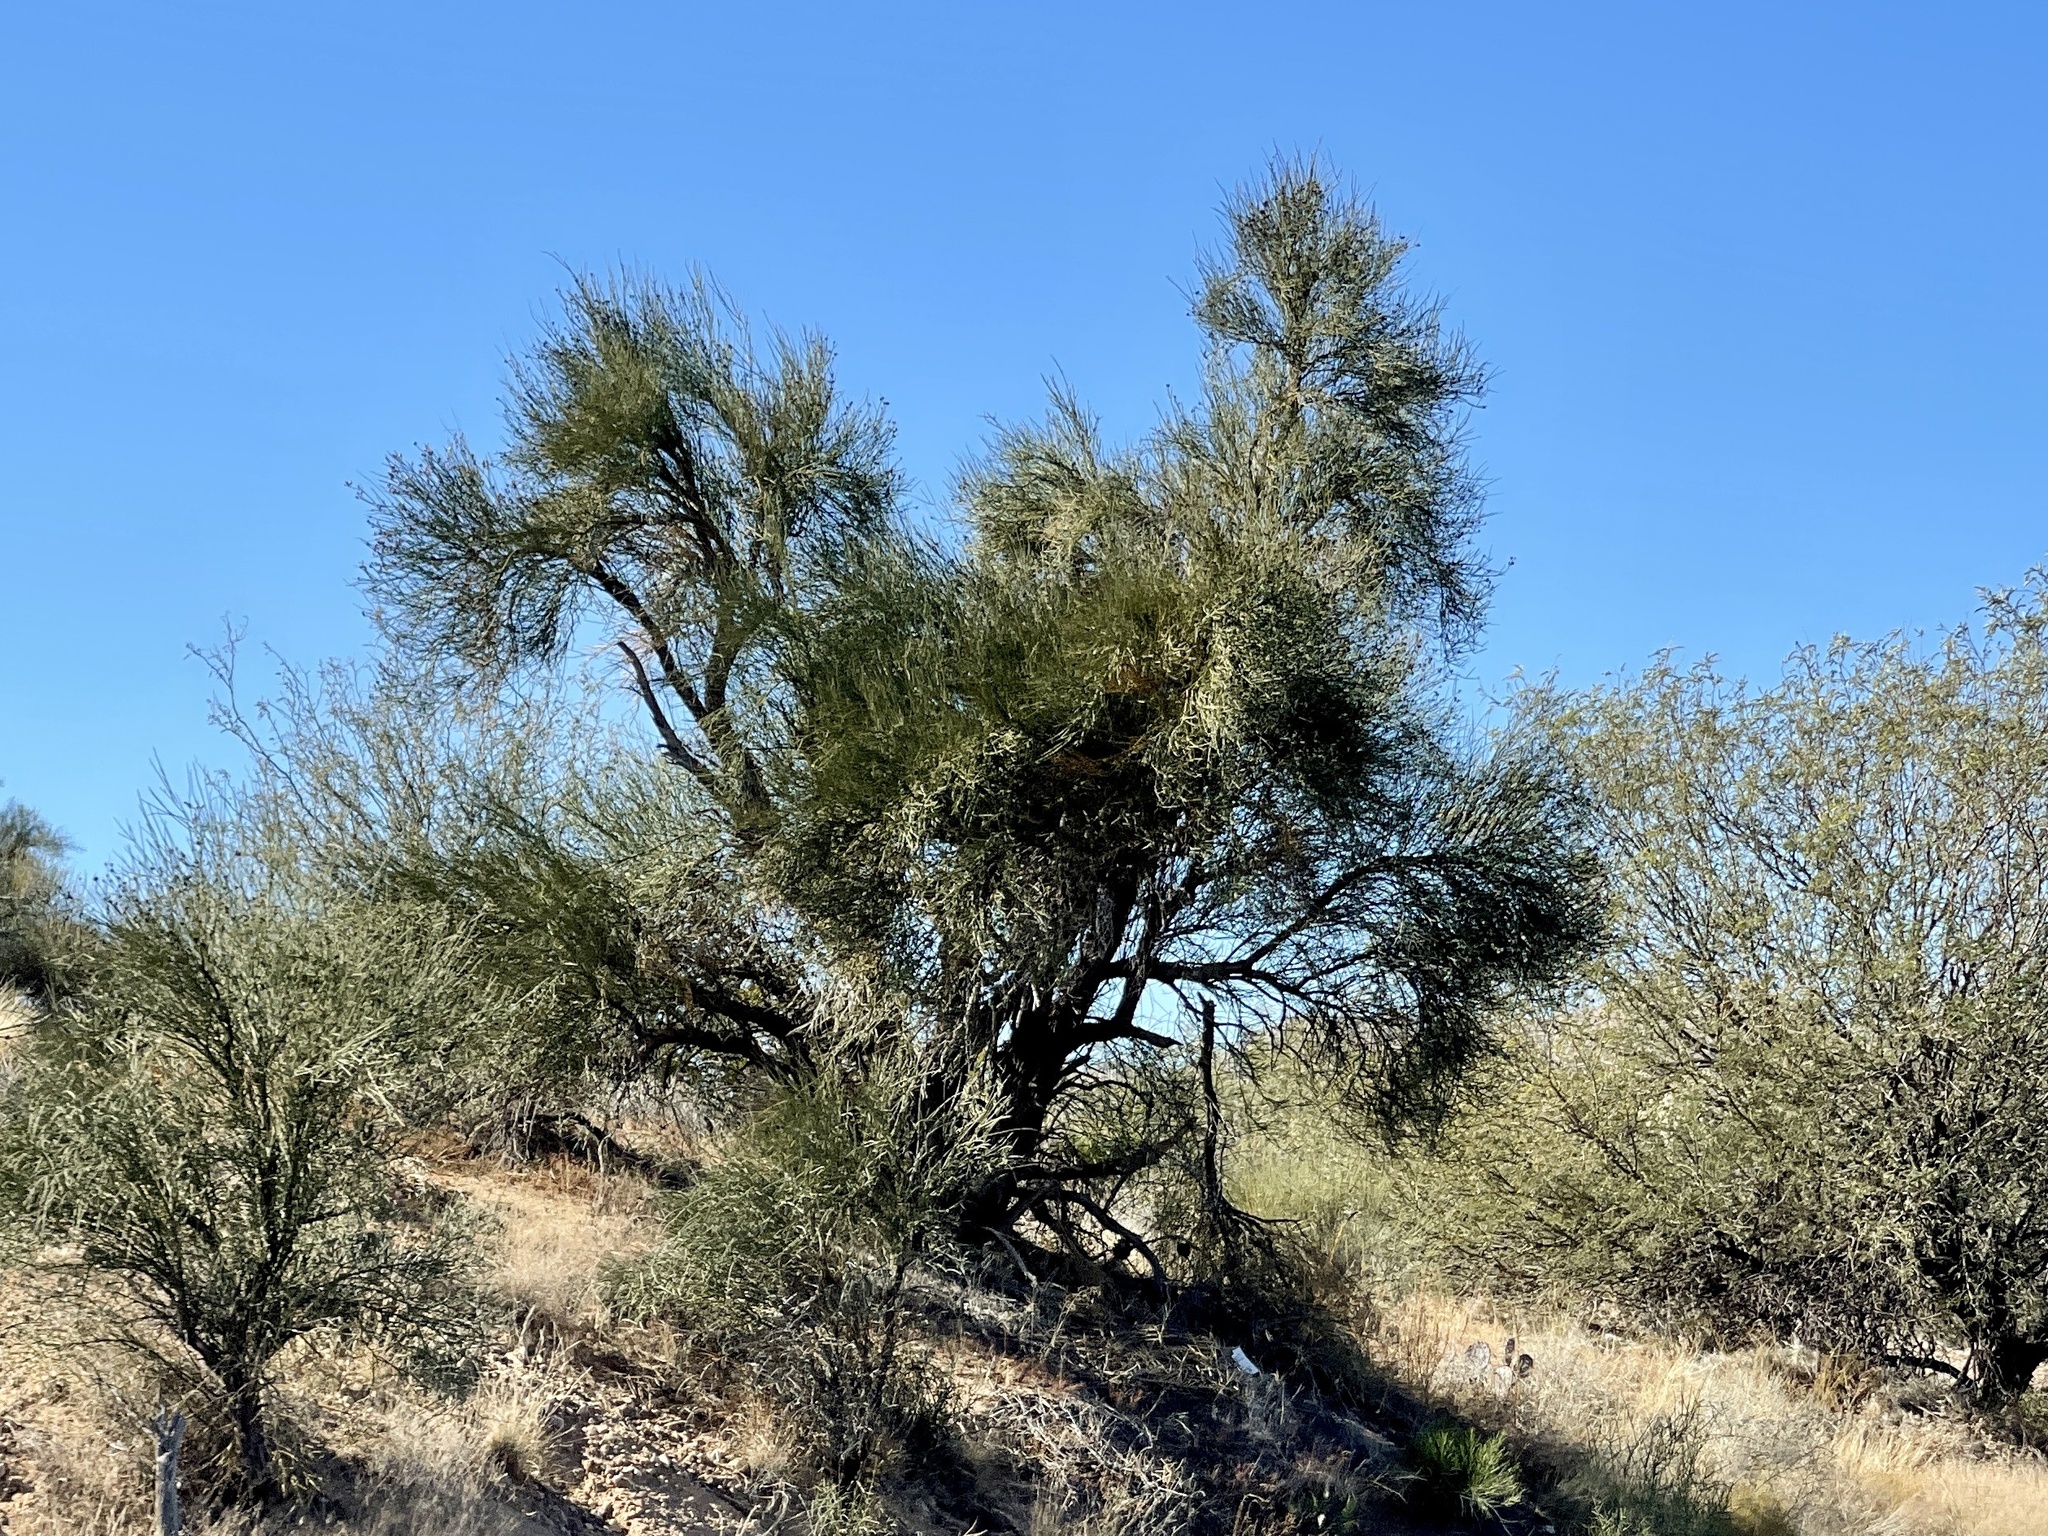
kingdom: Plantae
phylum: Tracheophyta
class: Magnoliopsida
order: Celastrales
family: Celastraceae
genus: Canotia
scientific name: Canotia holacantha
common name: Crucifixion thorns
